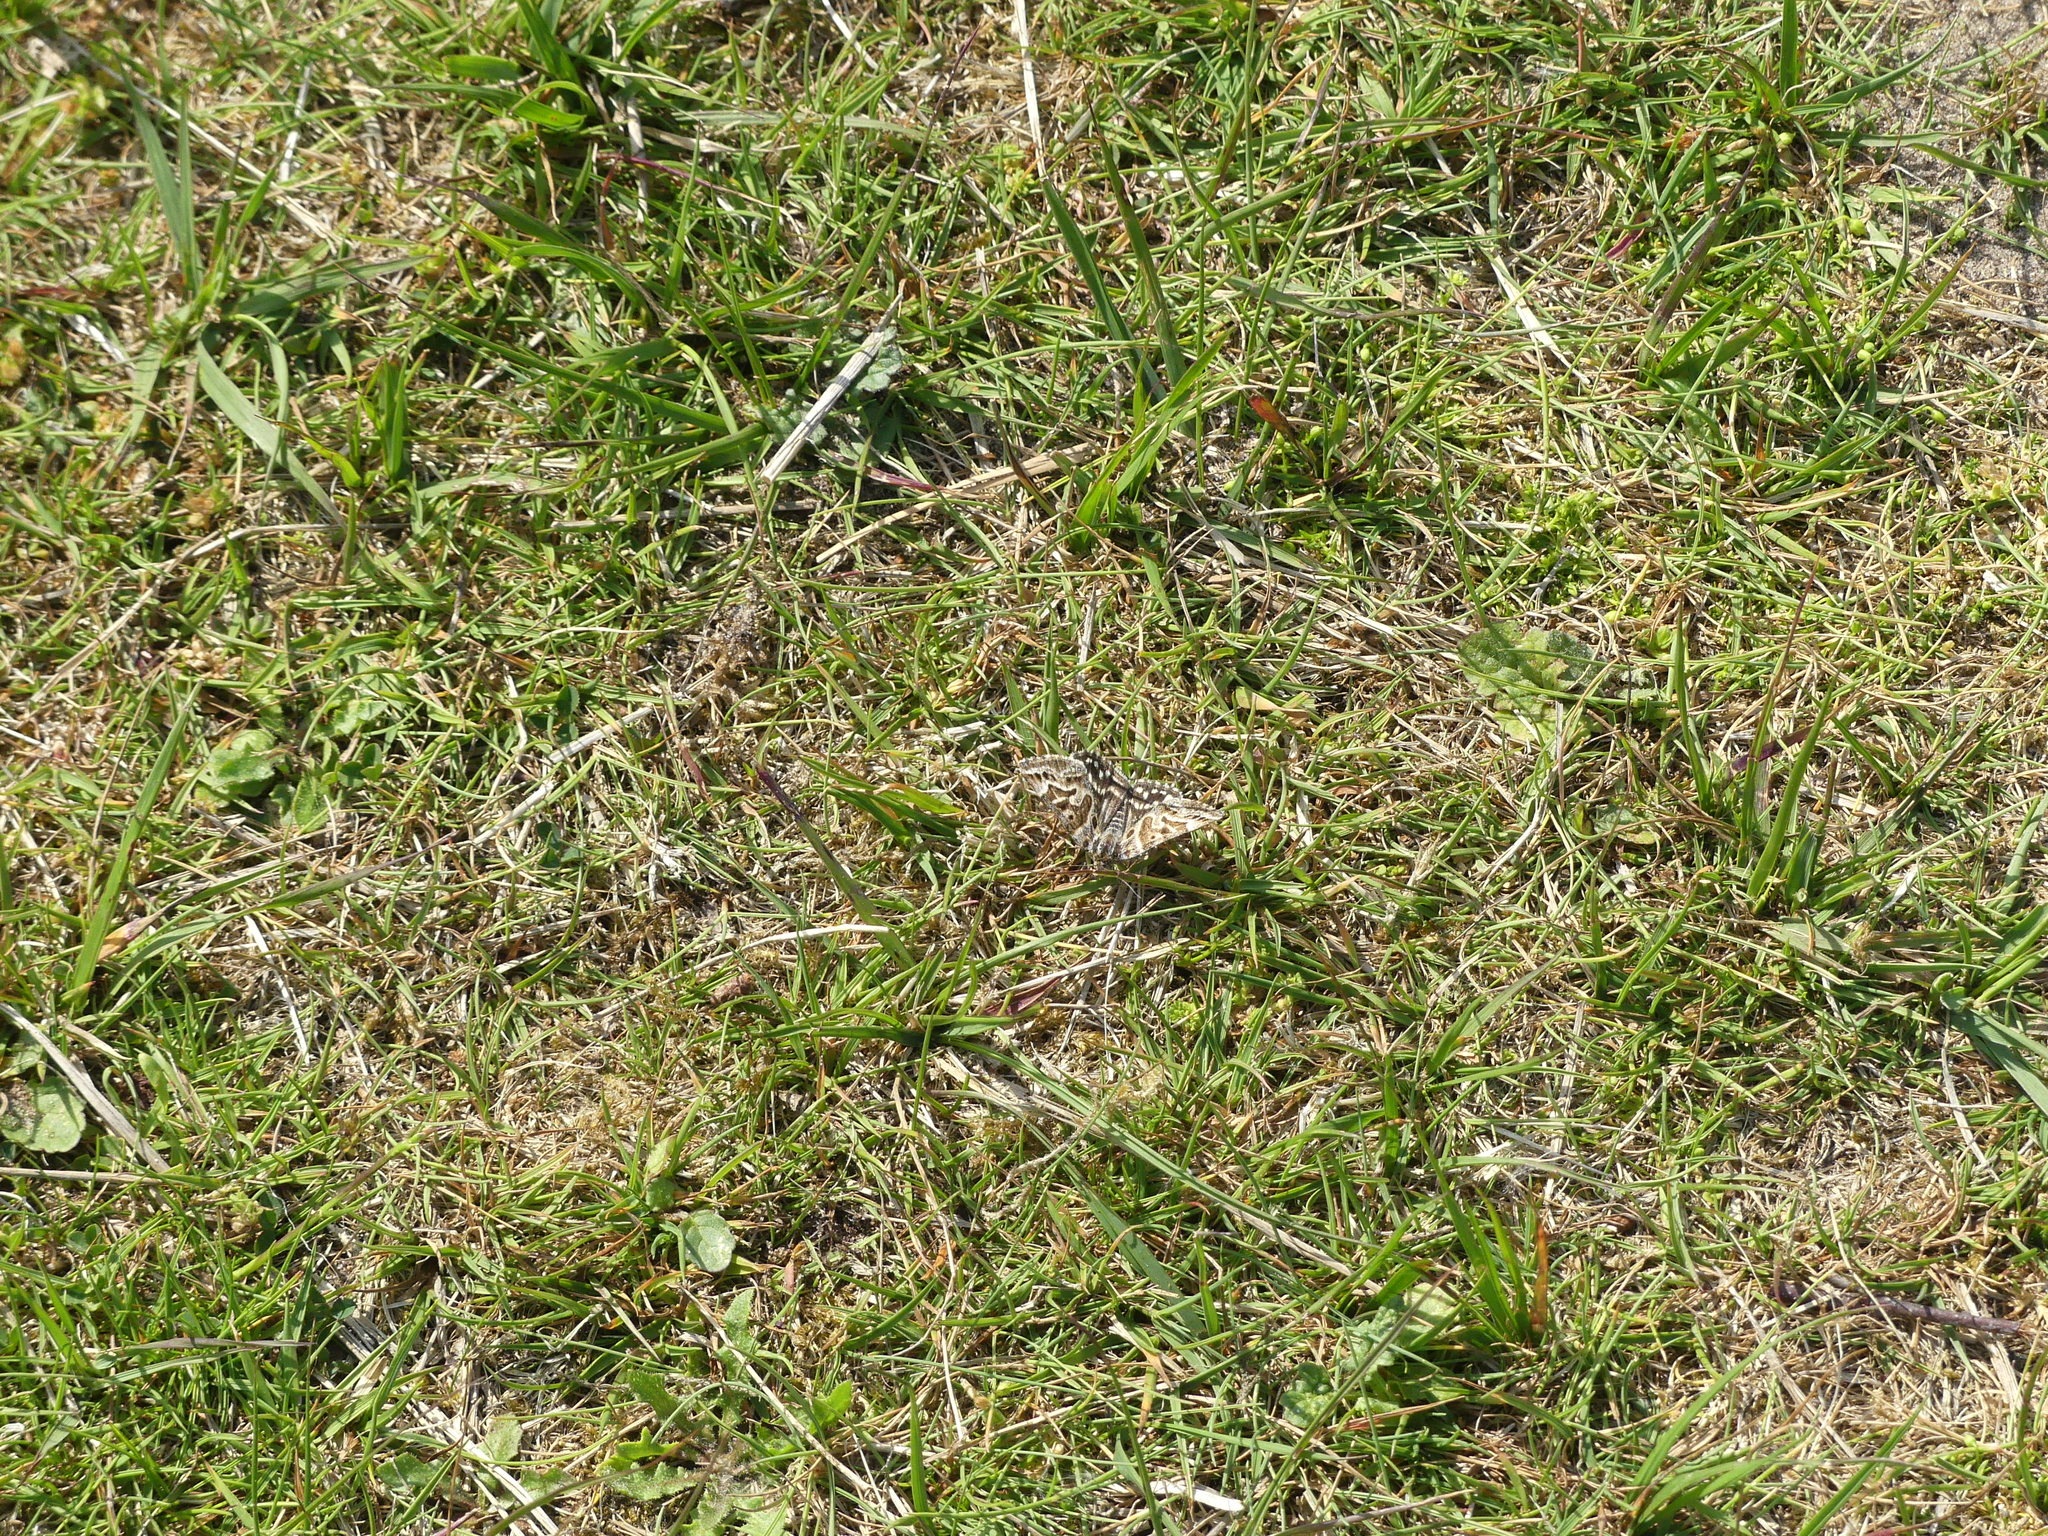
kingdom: Animalia
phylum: Arthropoda
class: Insecta
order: Lepidoptera
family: Erebidae
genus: Callistege
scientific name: Callistege mi
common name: Mother shipton
